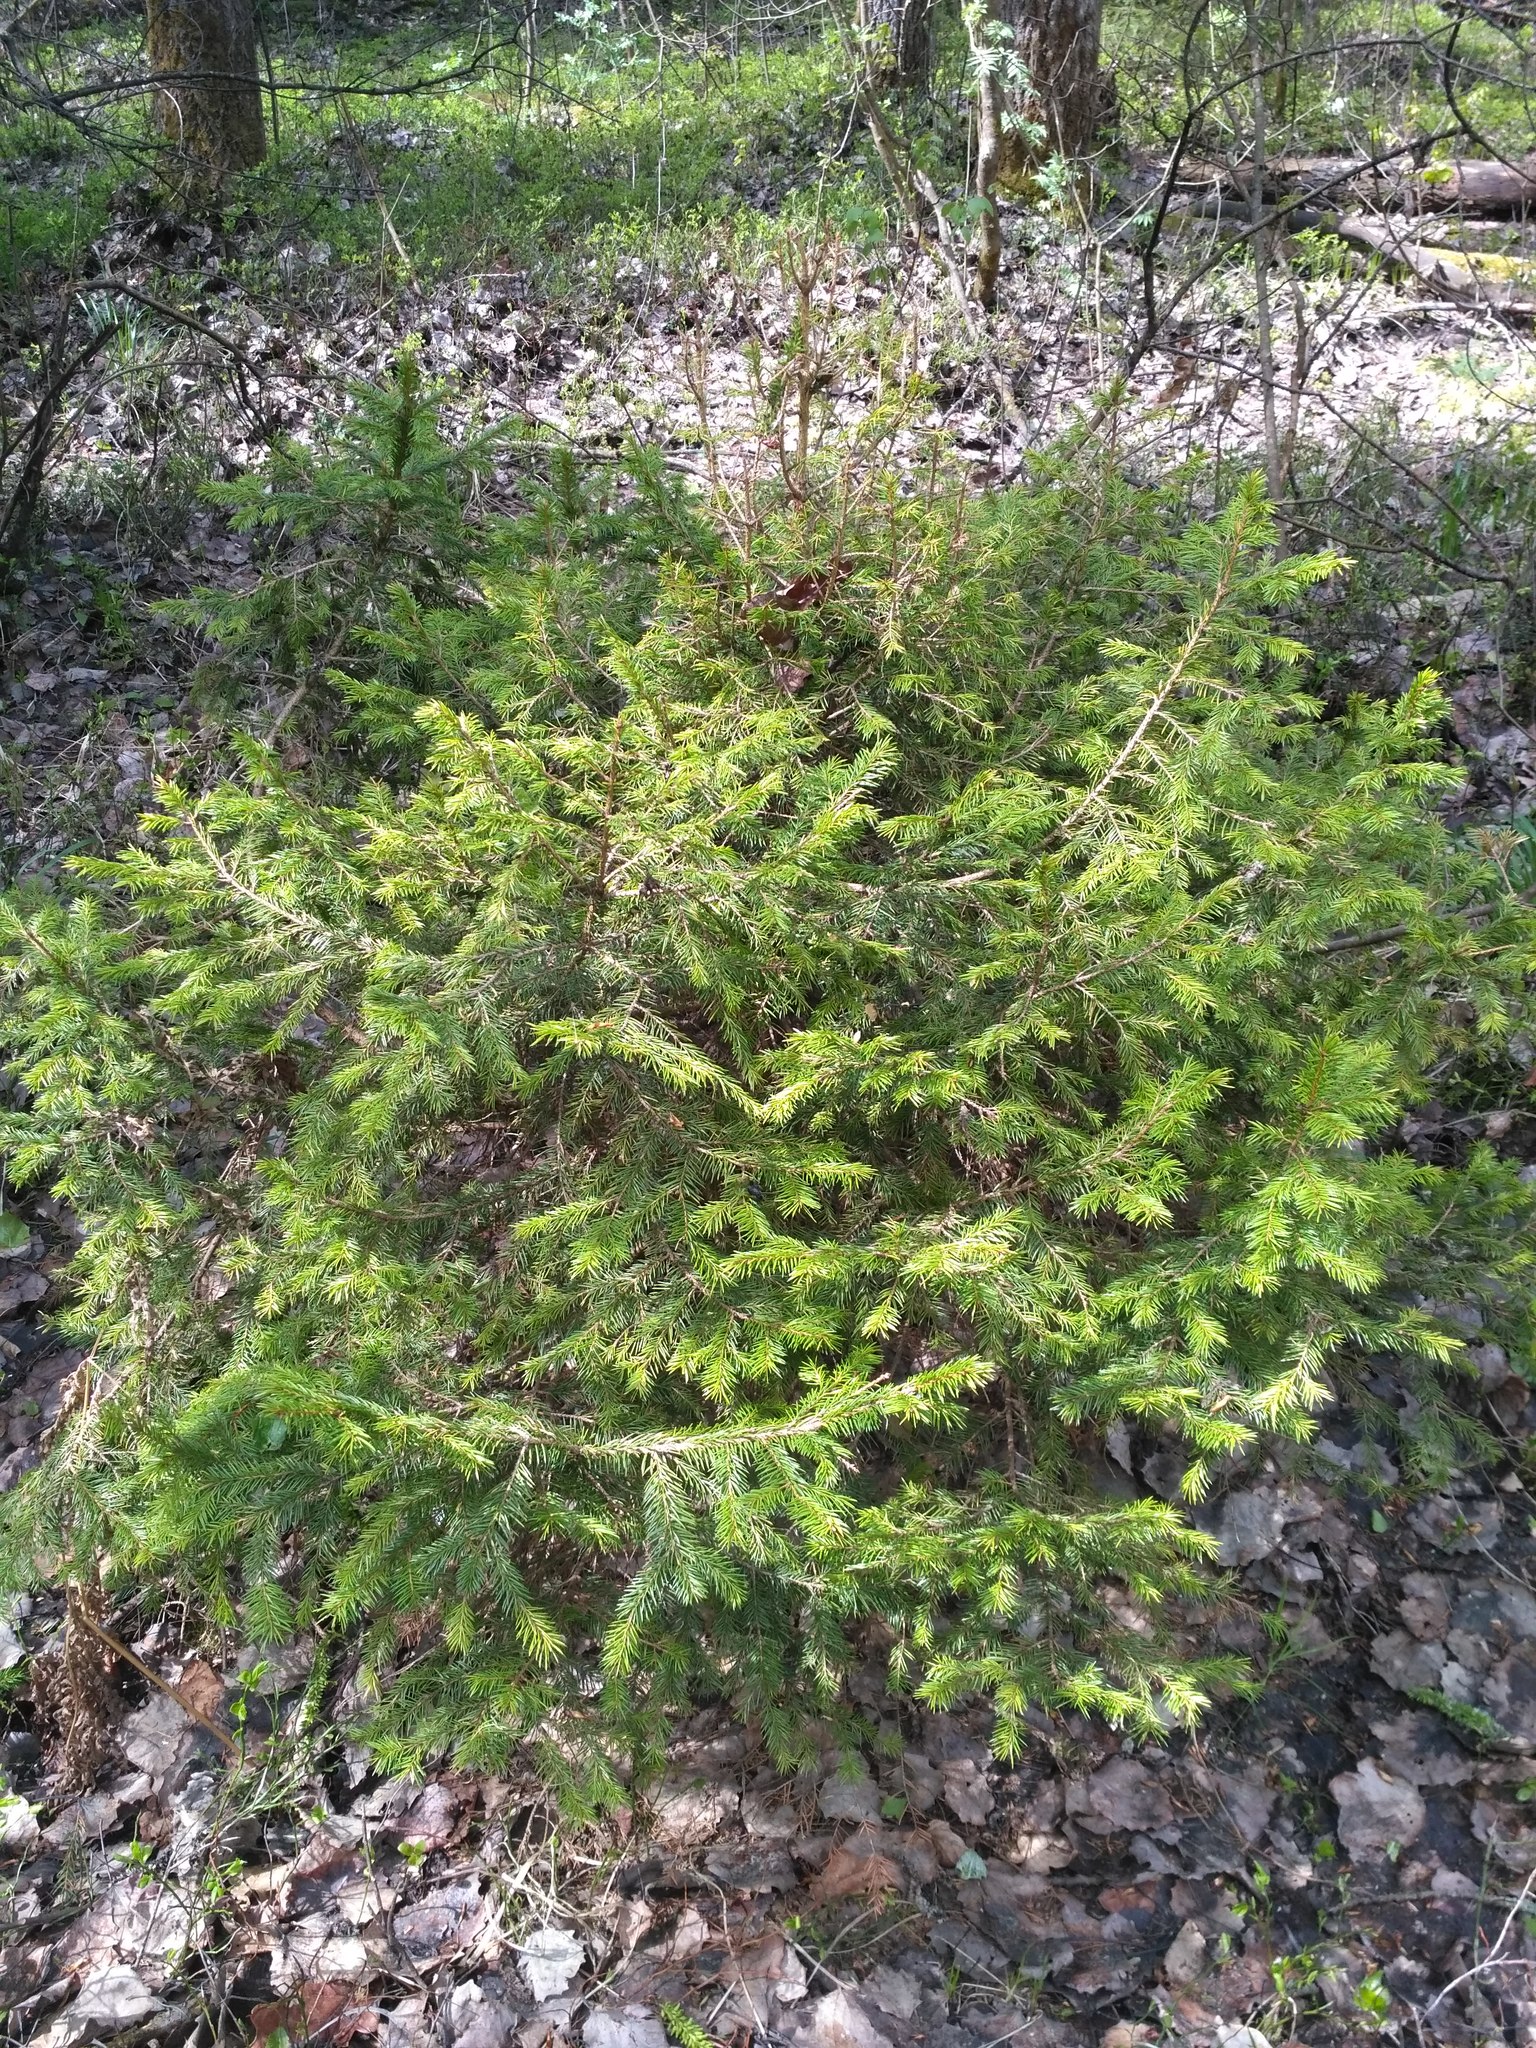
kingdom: Plantae
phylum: Tracheophyta
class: Pinopsida
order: Pinales
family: Pinaceae
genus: Picea
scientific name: Picea abies
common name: Norway spruce
